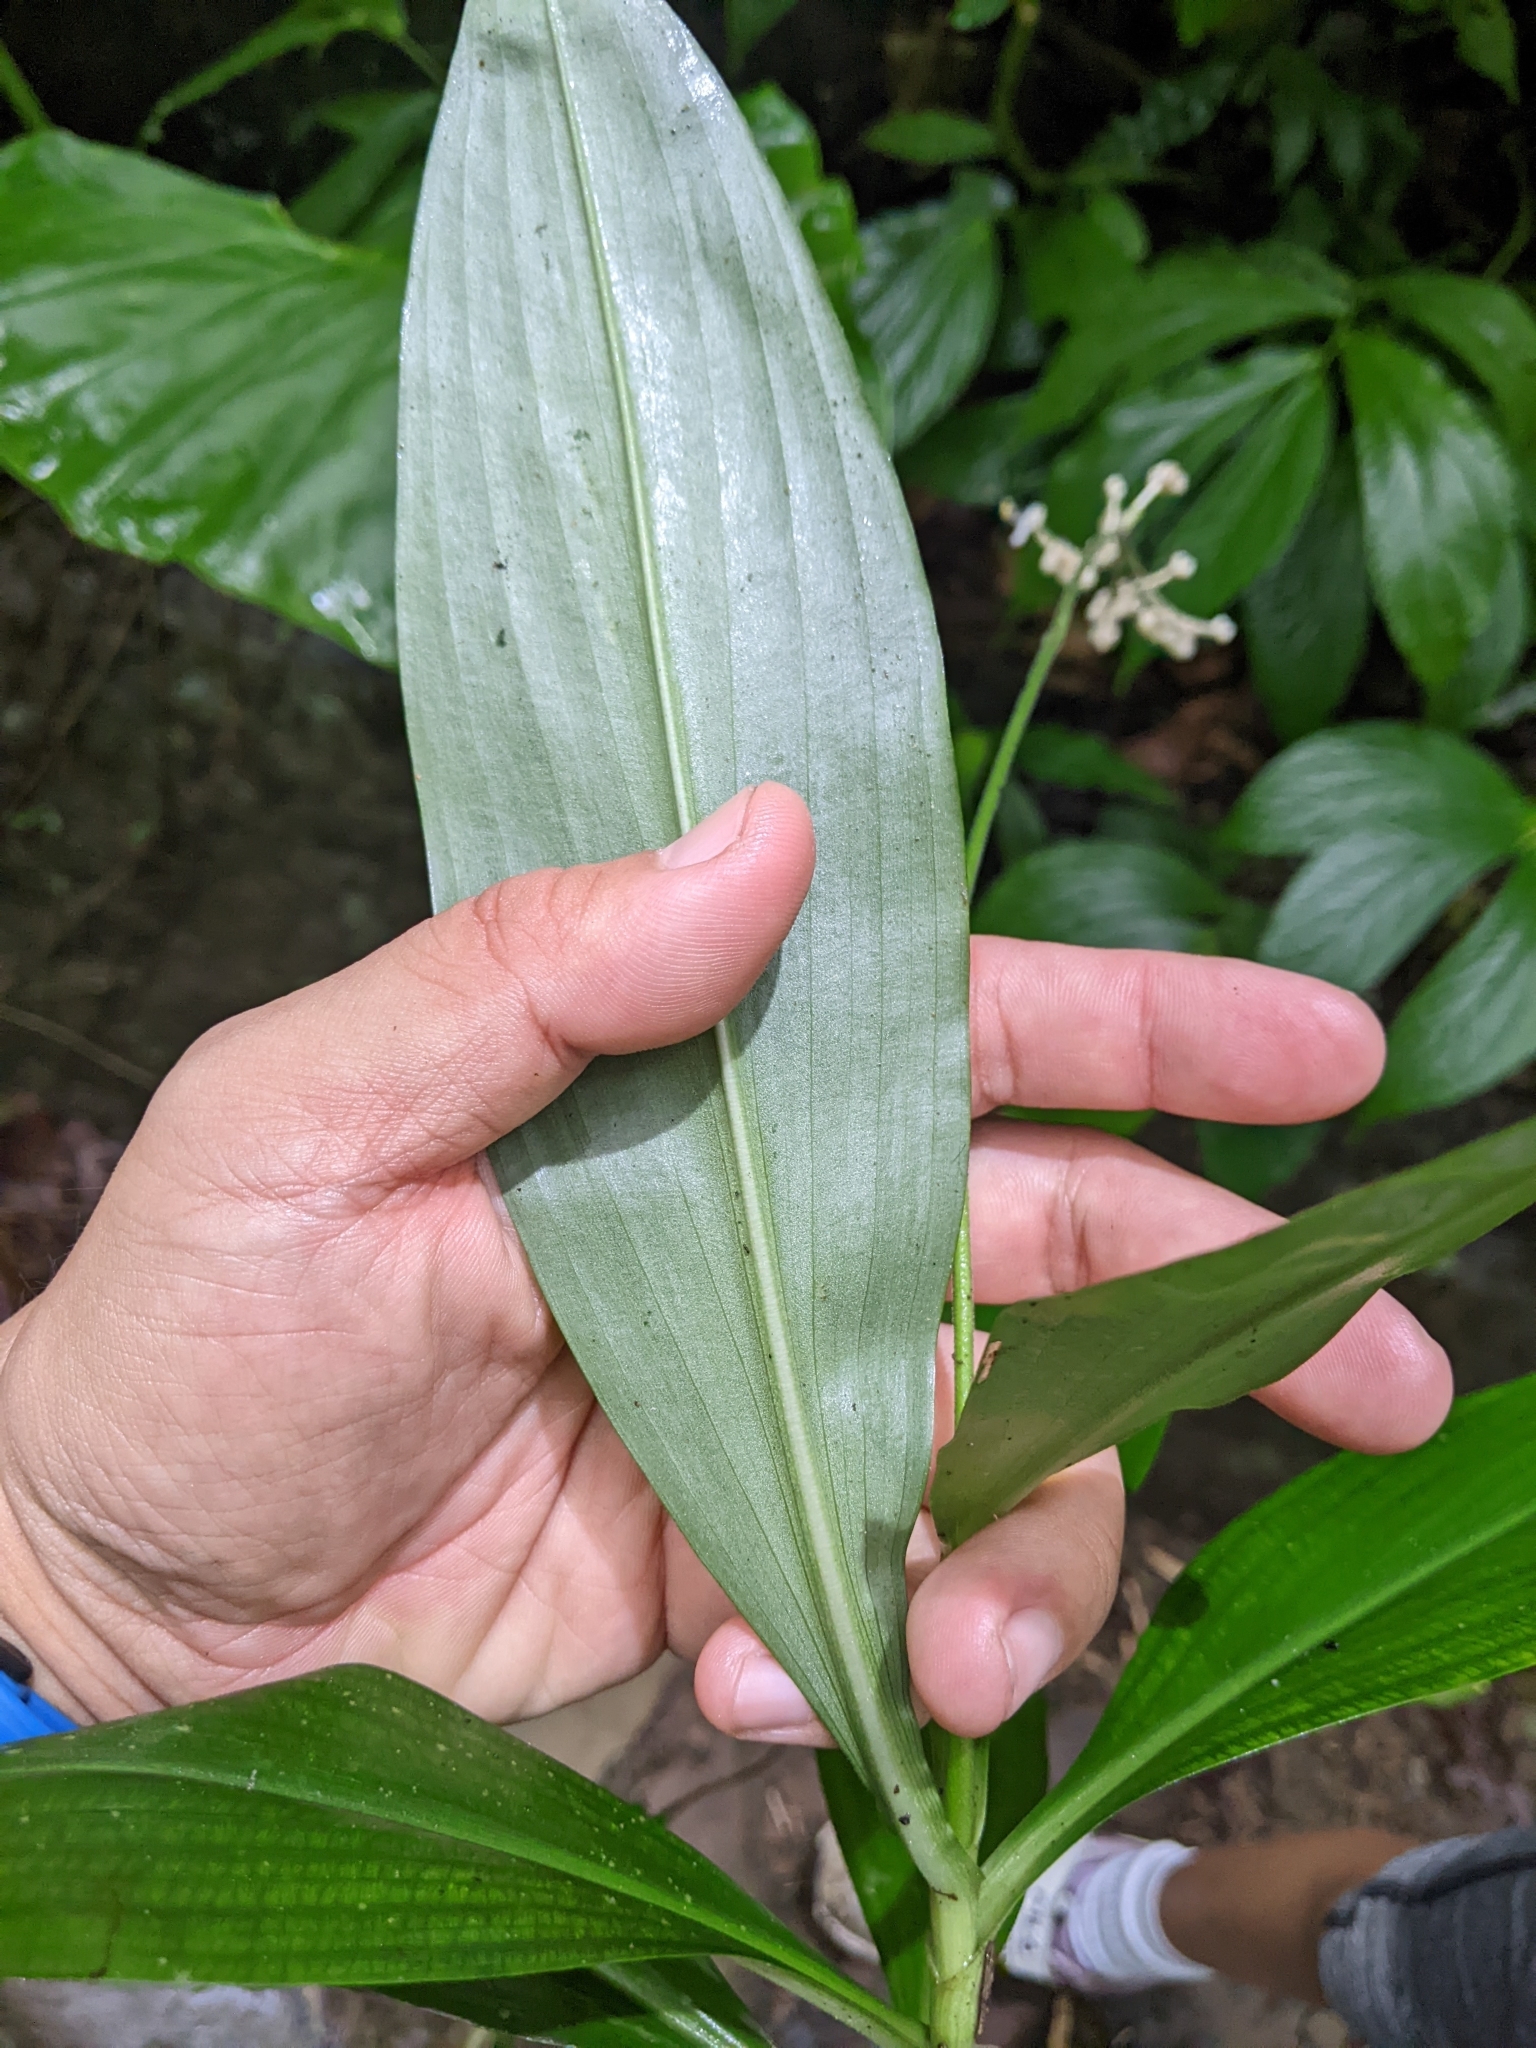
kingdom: Plantae
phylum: Tracheophyta
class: Liliopsida
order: Commelinales
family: Commelinaceae
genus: Pollia
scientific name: Pollia japonica
